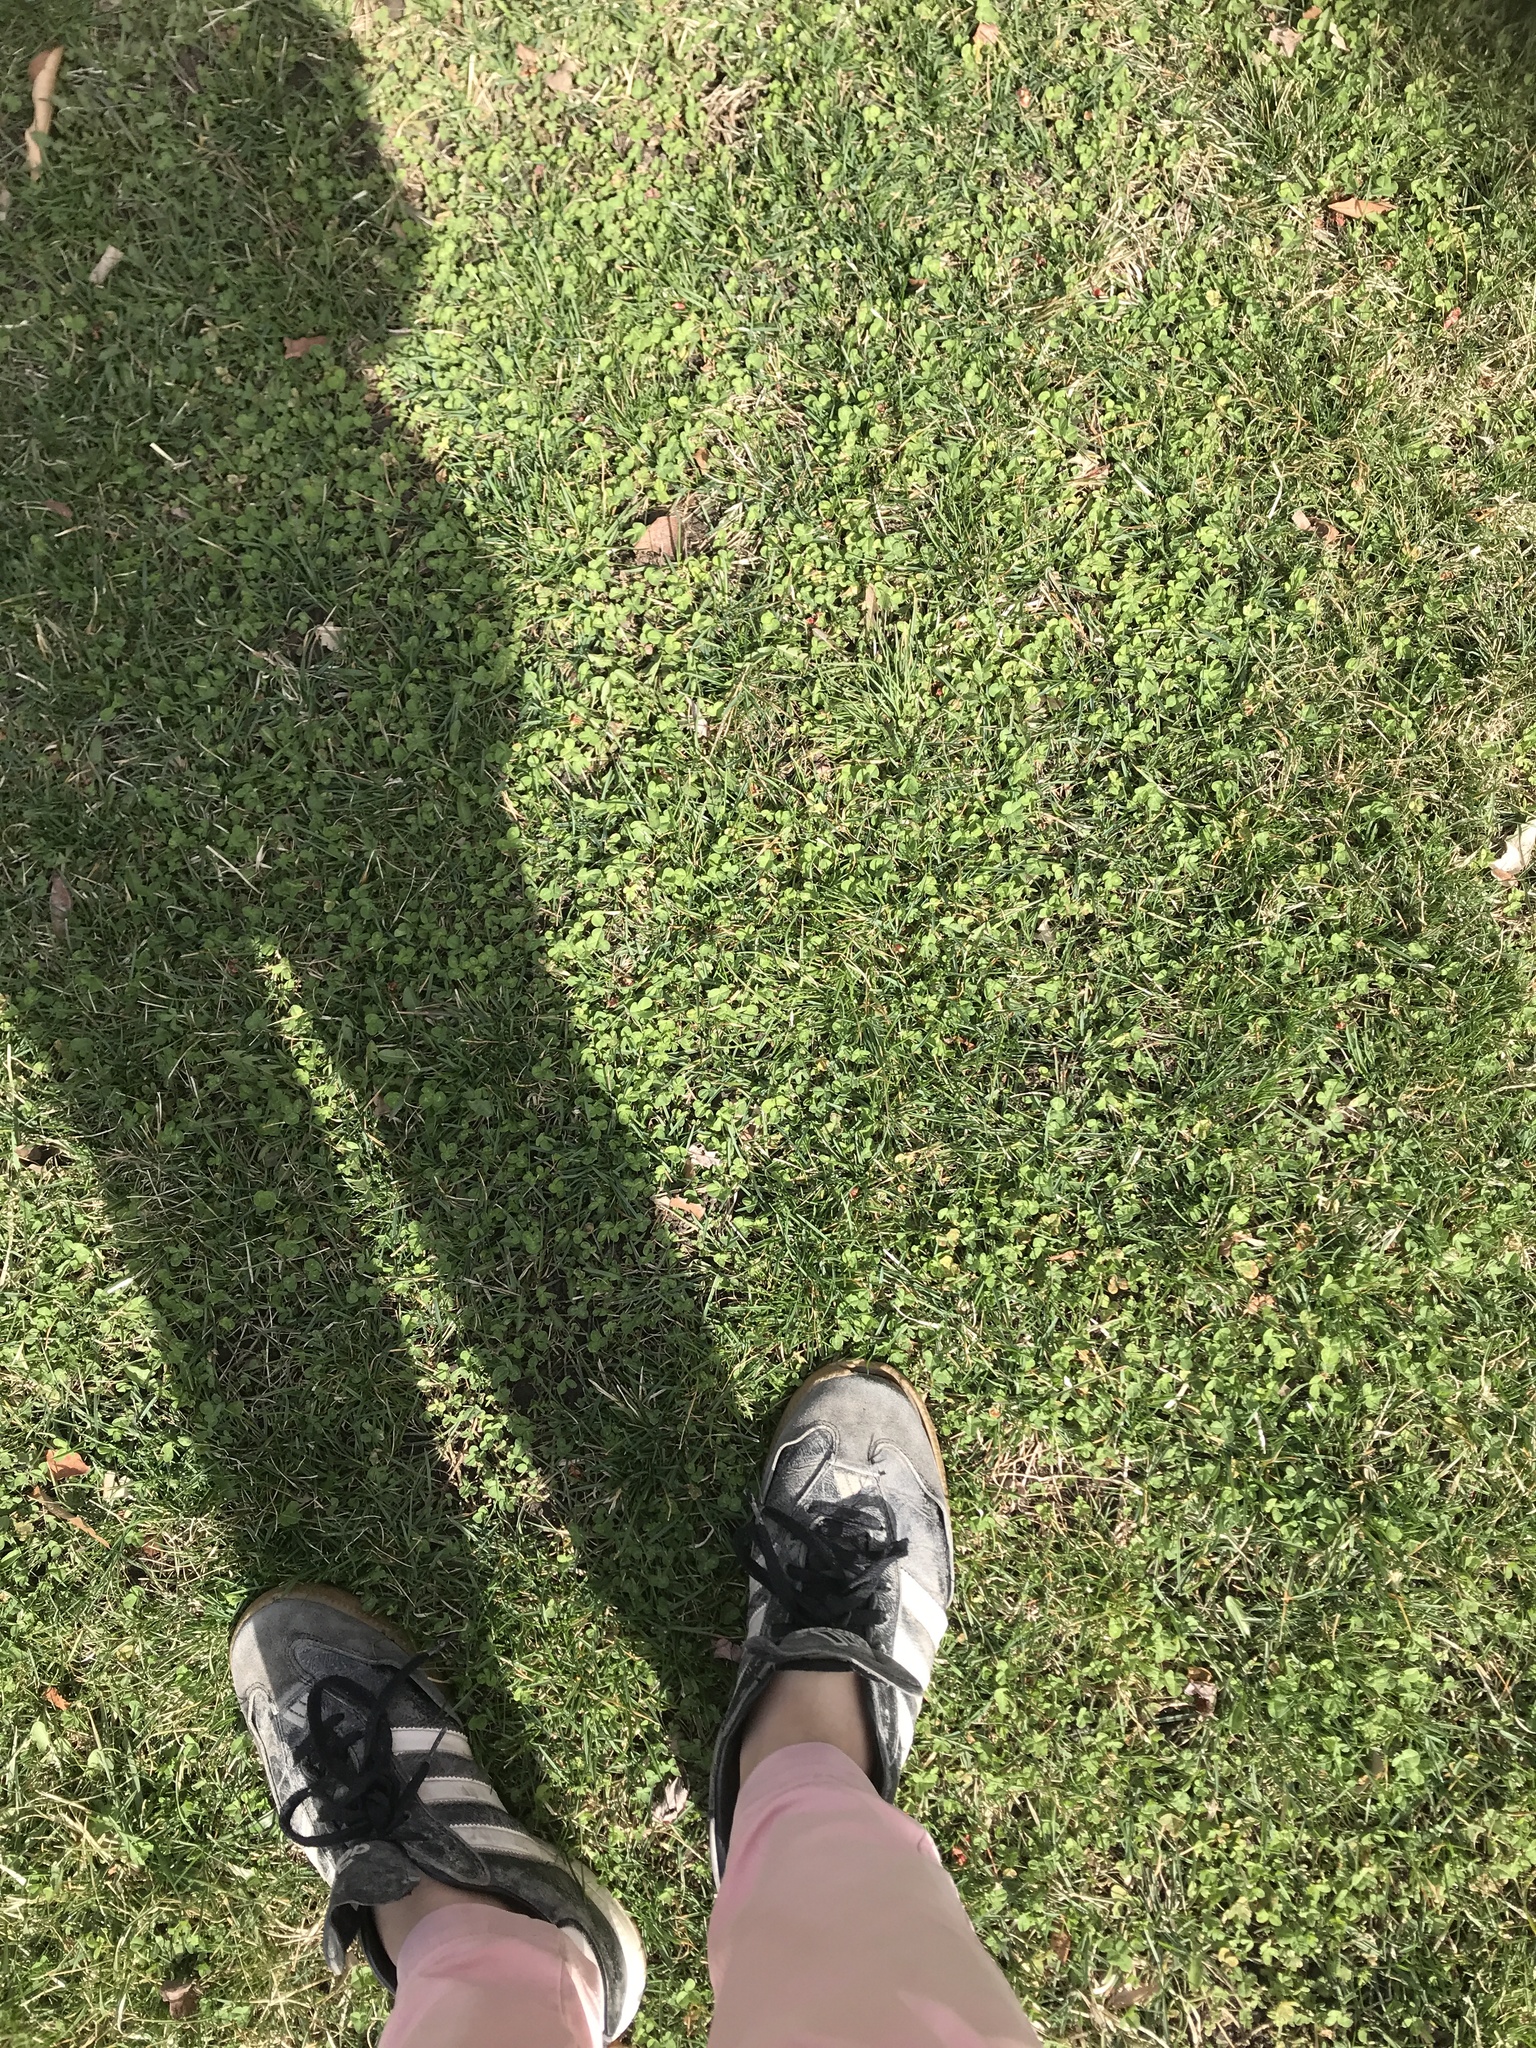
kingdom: Plantae
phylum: Tracheophyta
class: Magnoliopsida
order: Fabales
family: Fabaceae
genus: Trifolium
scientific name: Trifolium repens
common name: White clover
